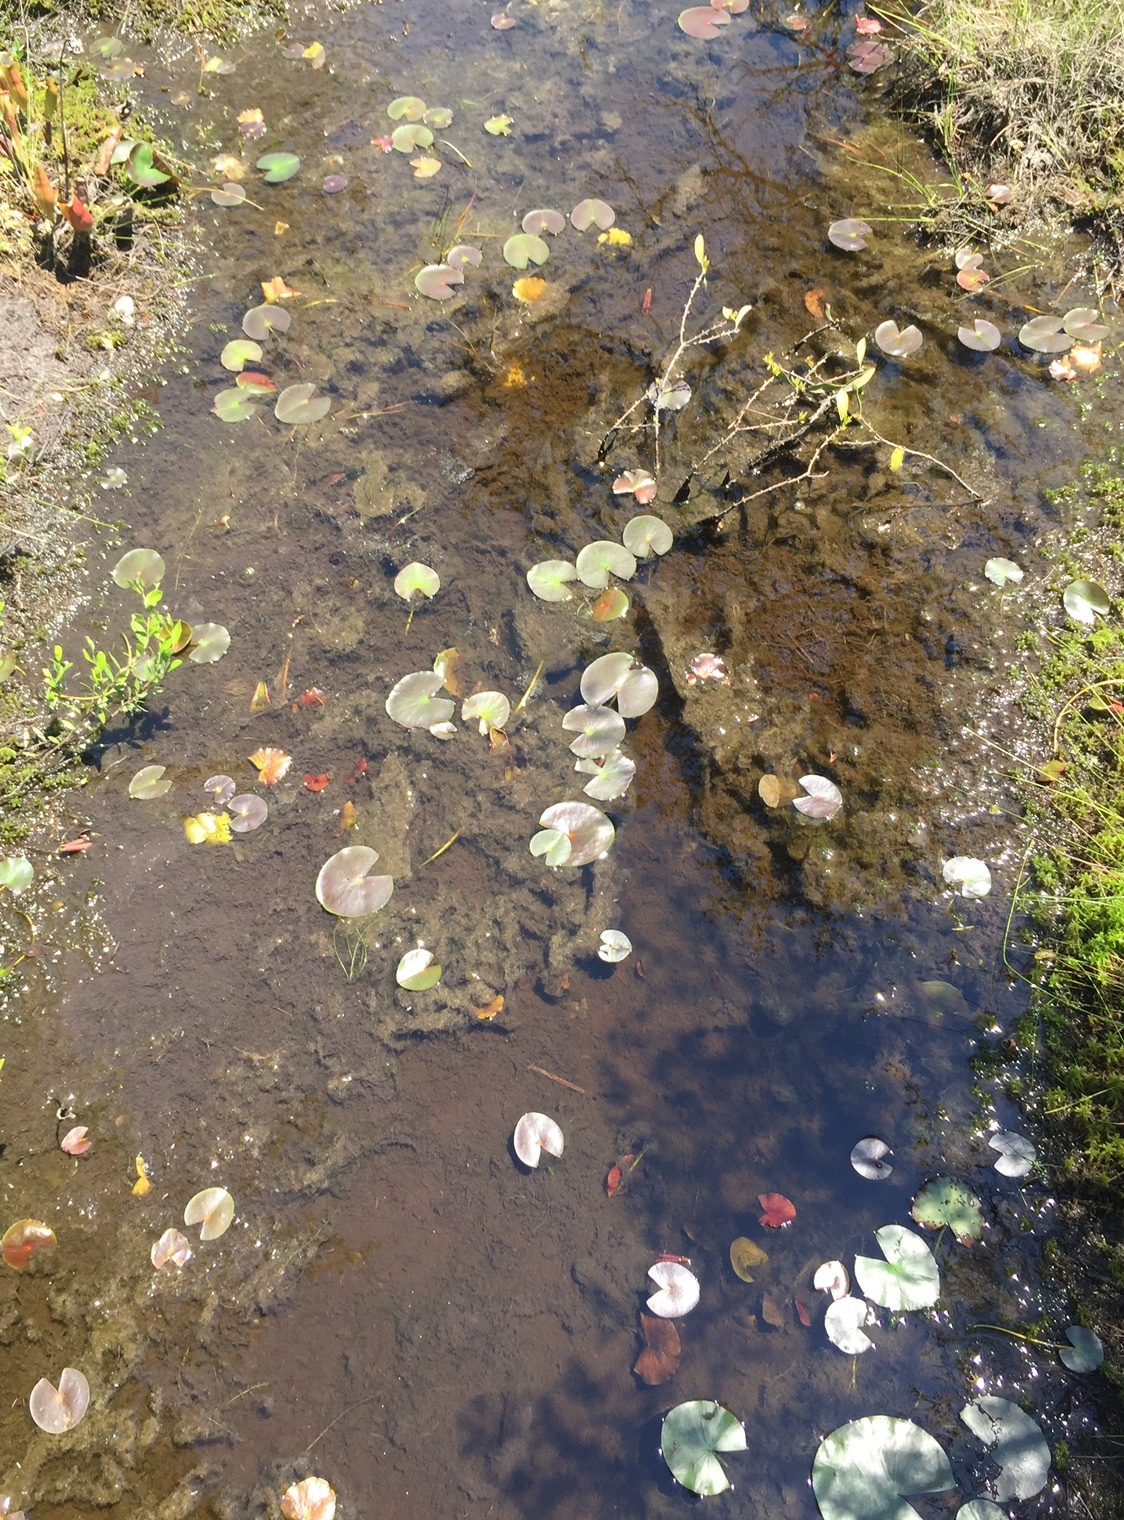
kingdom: Plantae
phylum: Tracheophyta
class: Magnoliopsida
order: Nymphaeales
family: Nymphaeaceae
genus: Nymphaea
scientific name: Nymphaea odorata
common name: Fragrant water-lily
